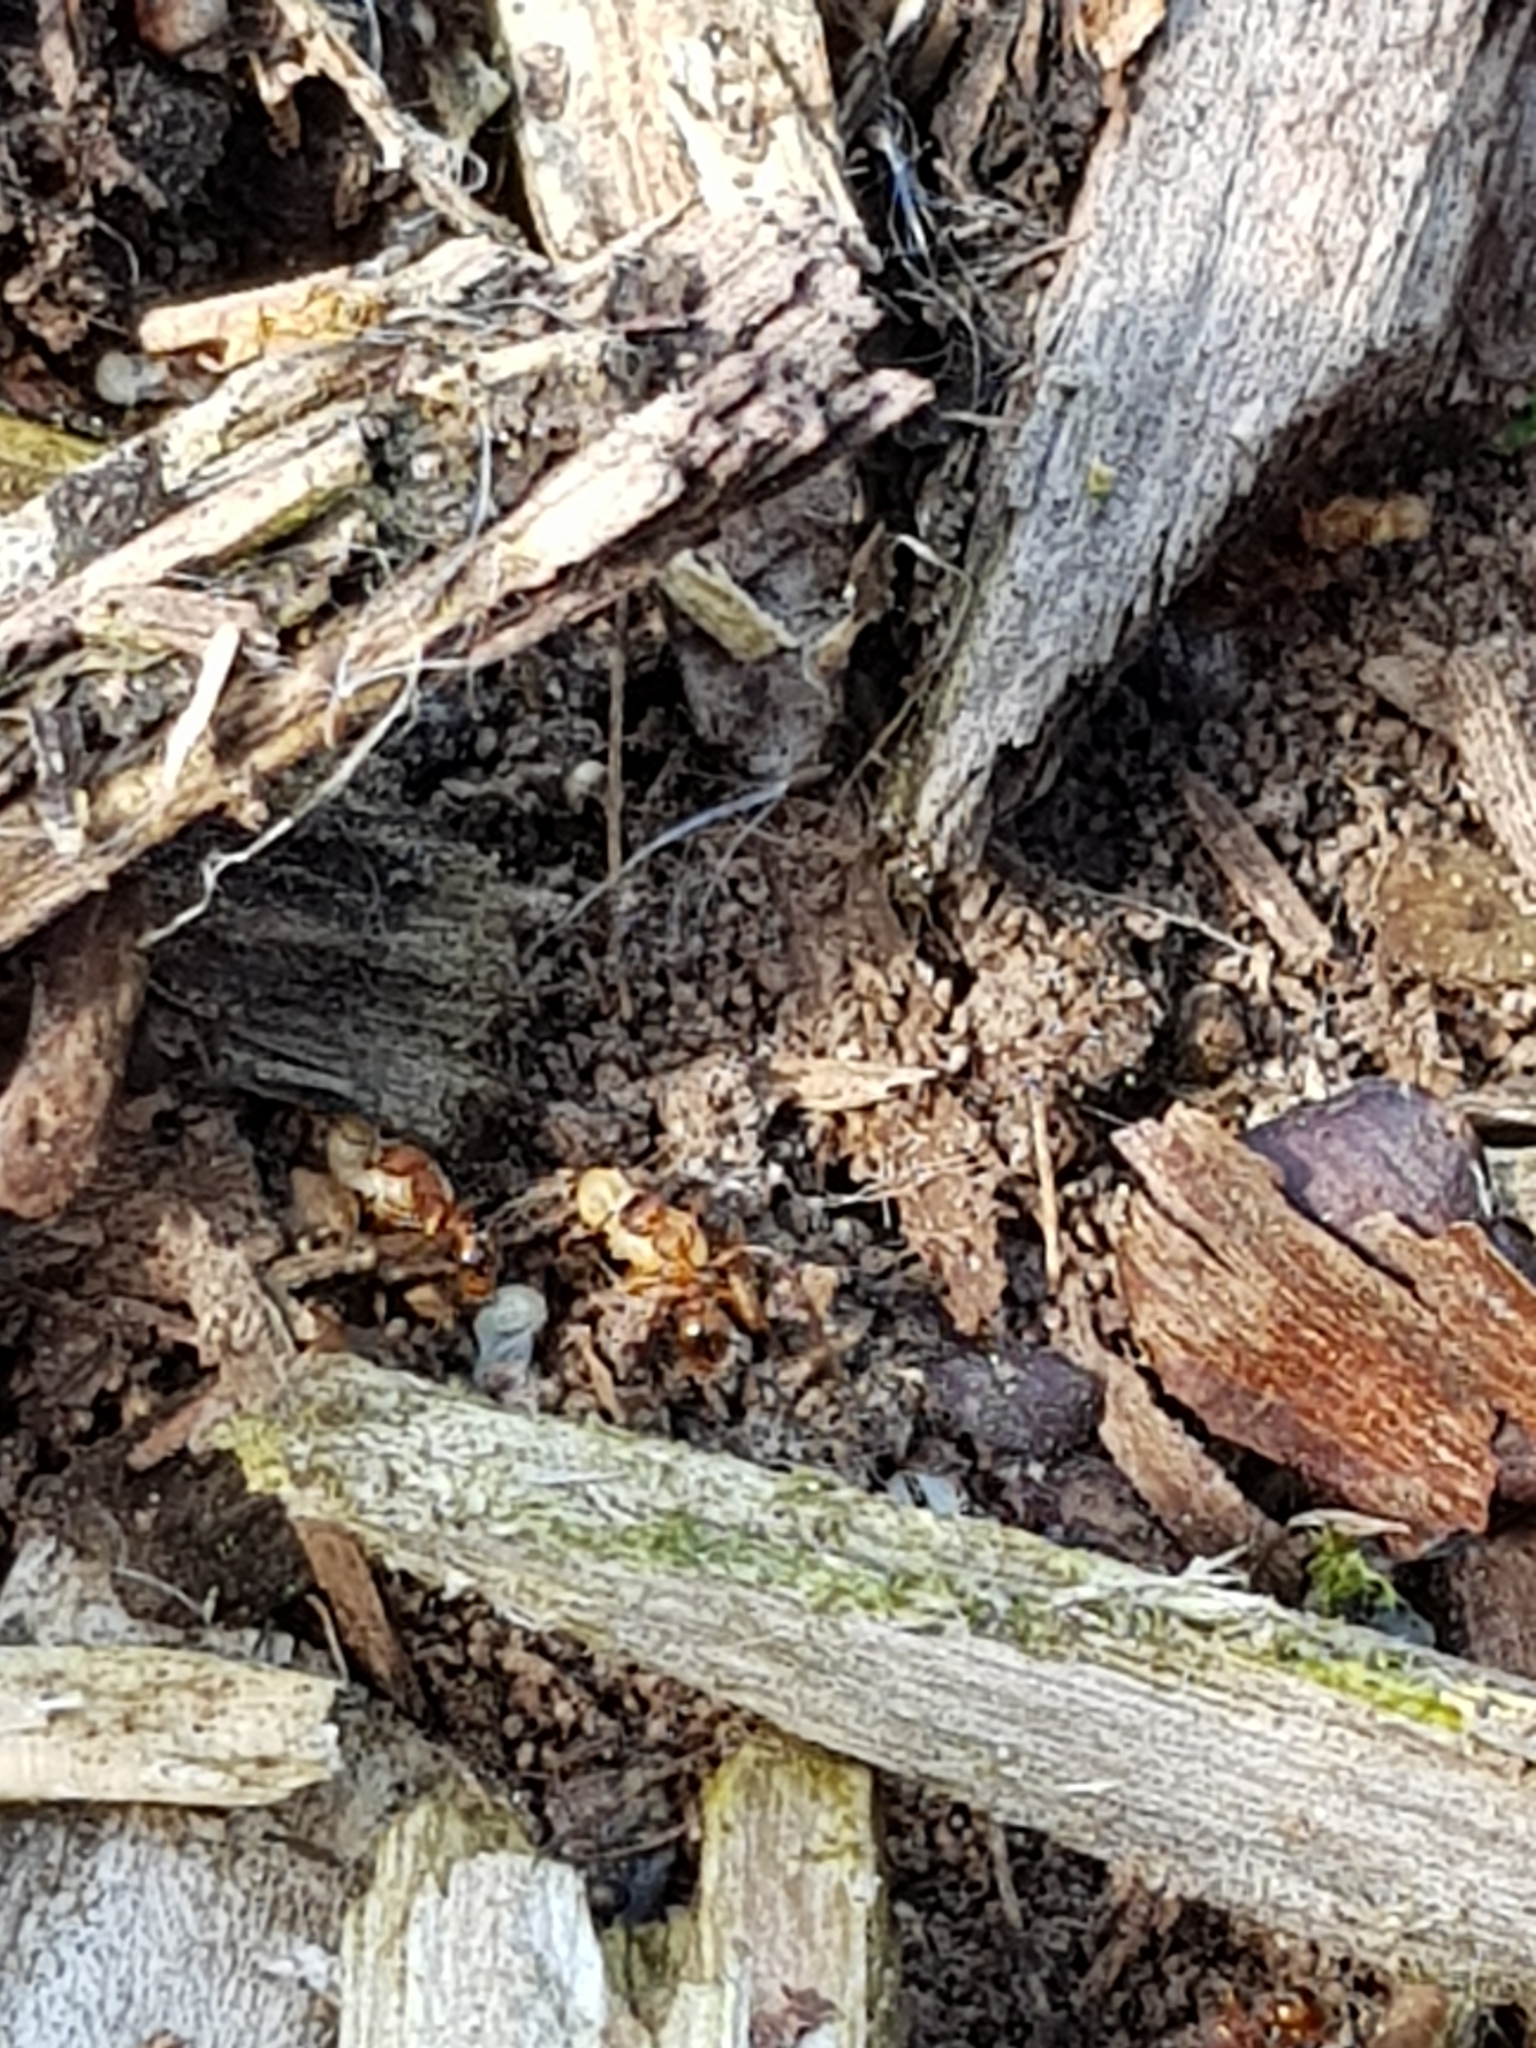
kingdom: Animalia
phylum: Arthropoda
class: Insecta
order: Hymenoptera
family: Formicidae
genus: Myrmica
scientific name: Myrmica rubra
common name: European fire ant
